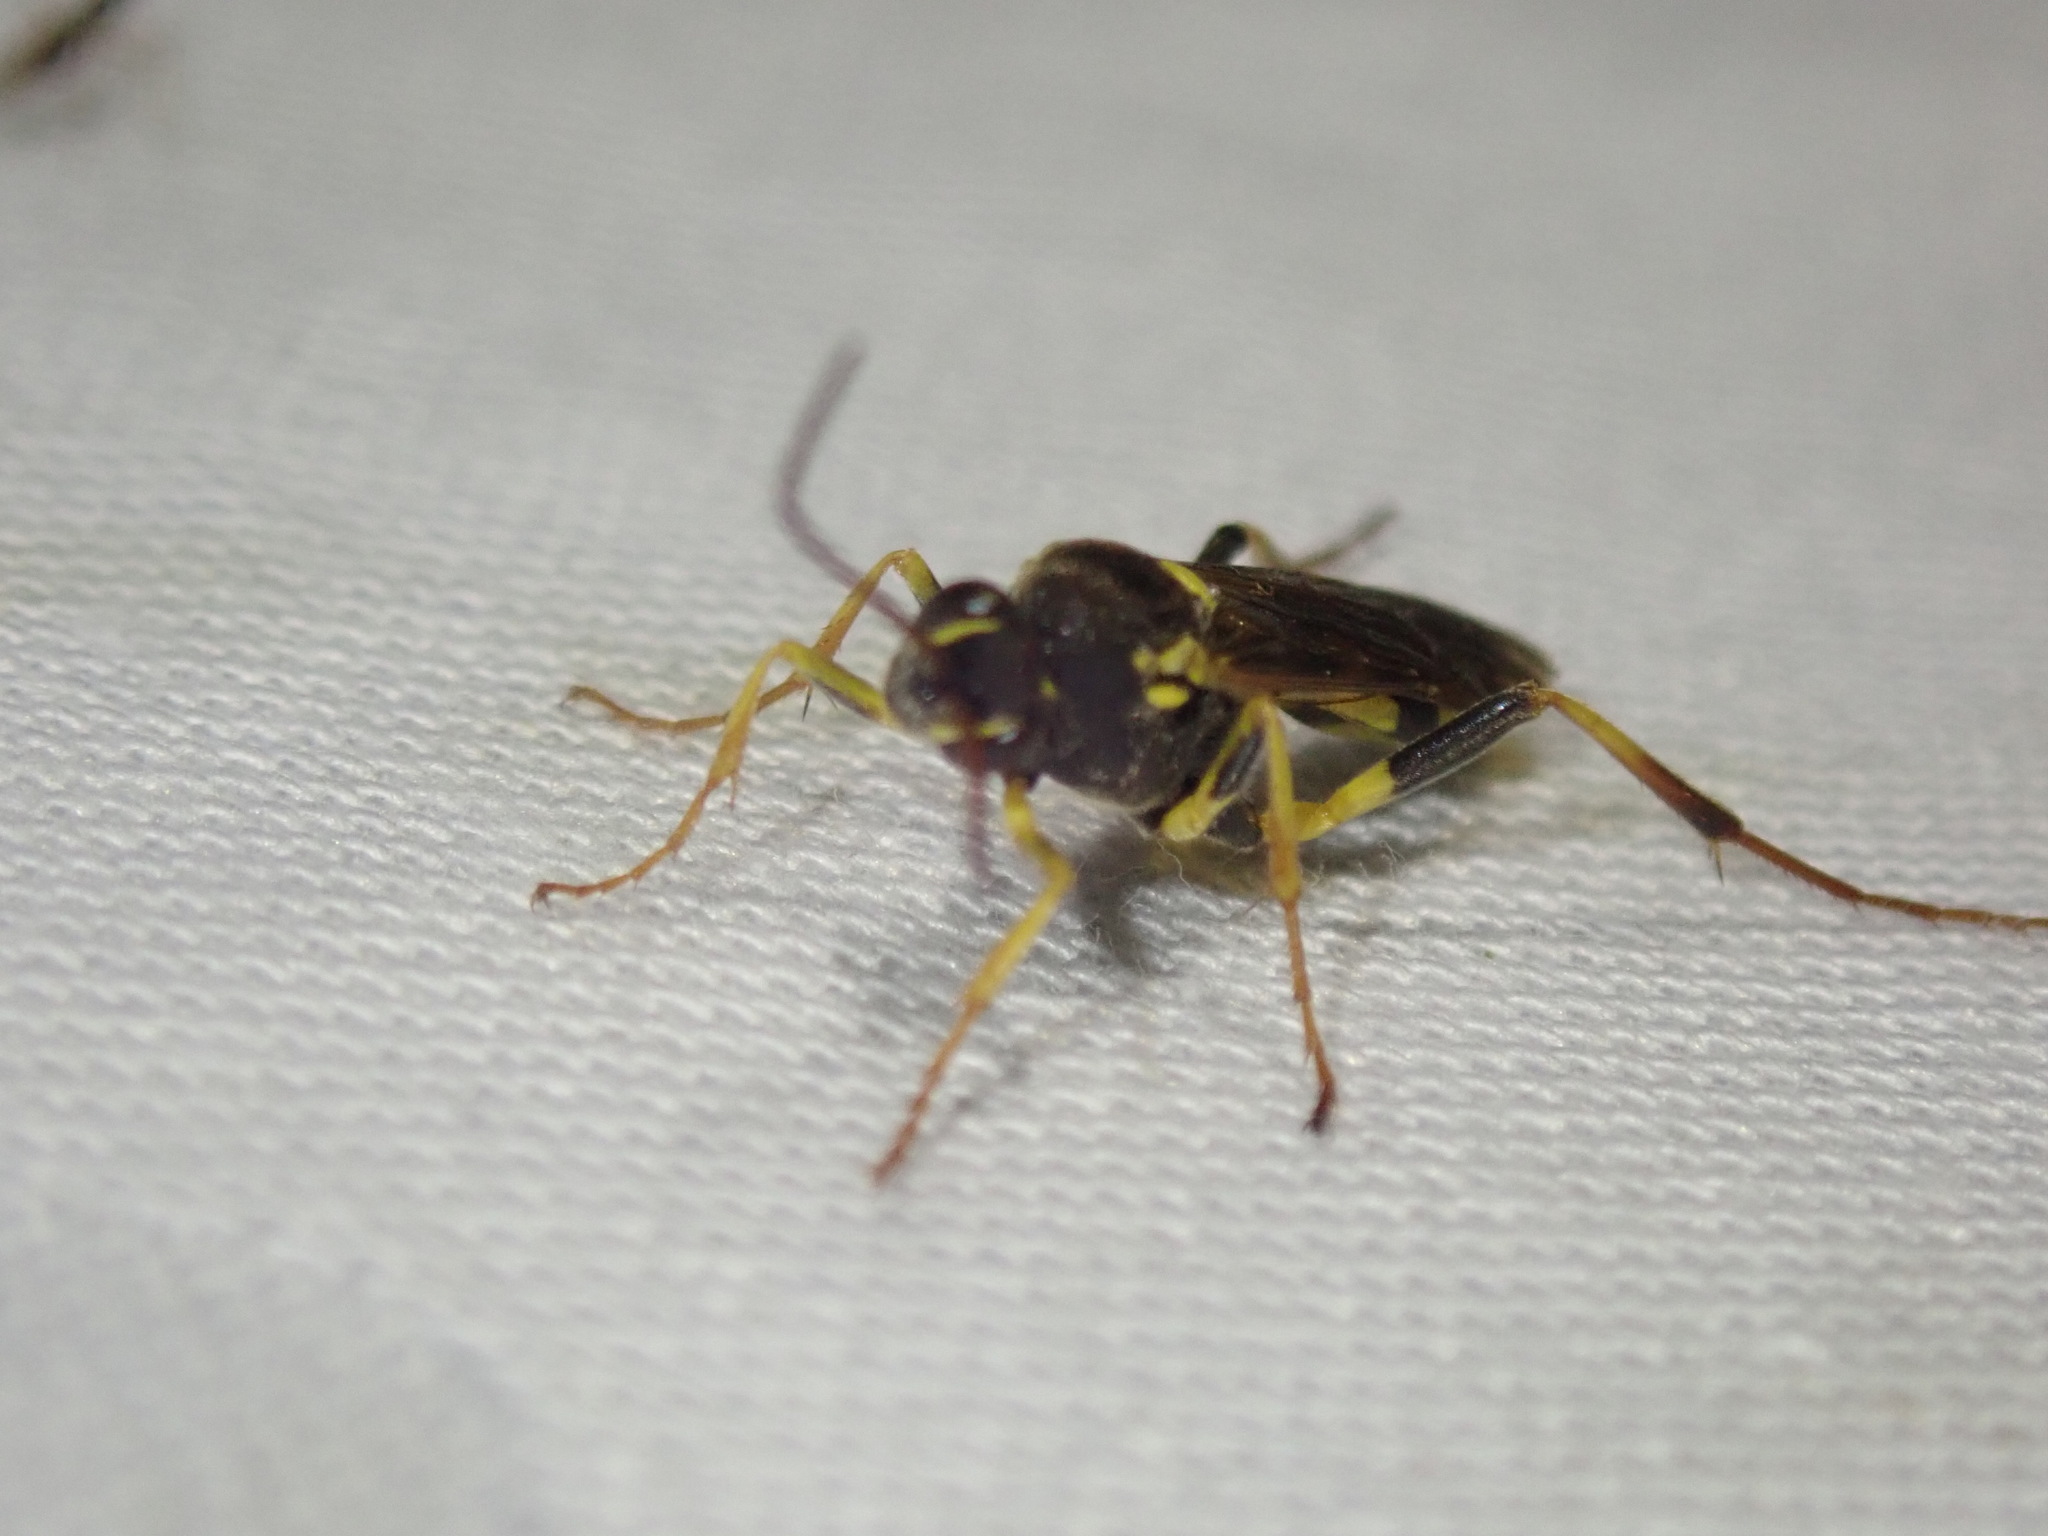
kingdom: Animalia
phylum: Arthropoda
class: Insecta
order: Hymenoptera
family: Ichneumonidae
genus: Amblyteles
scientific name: Amblyteles armatorius
